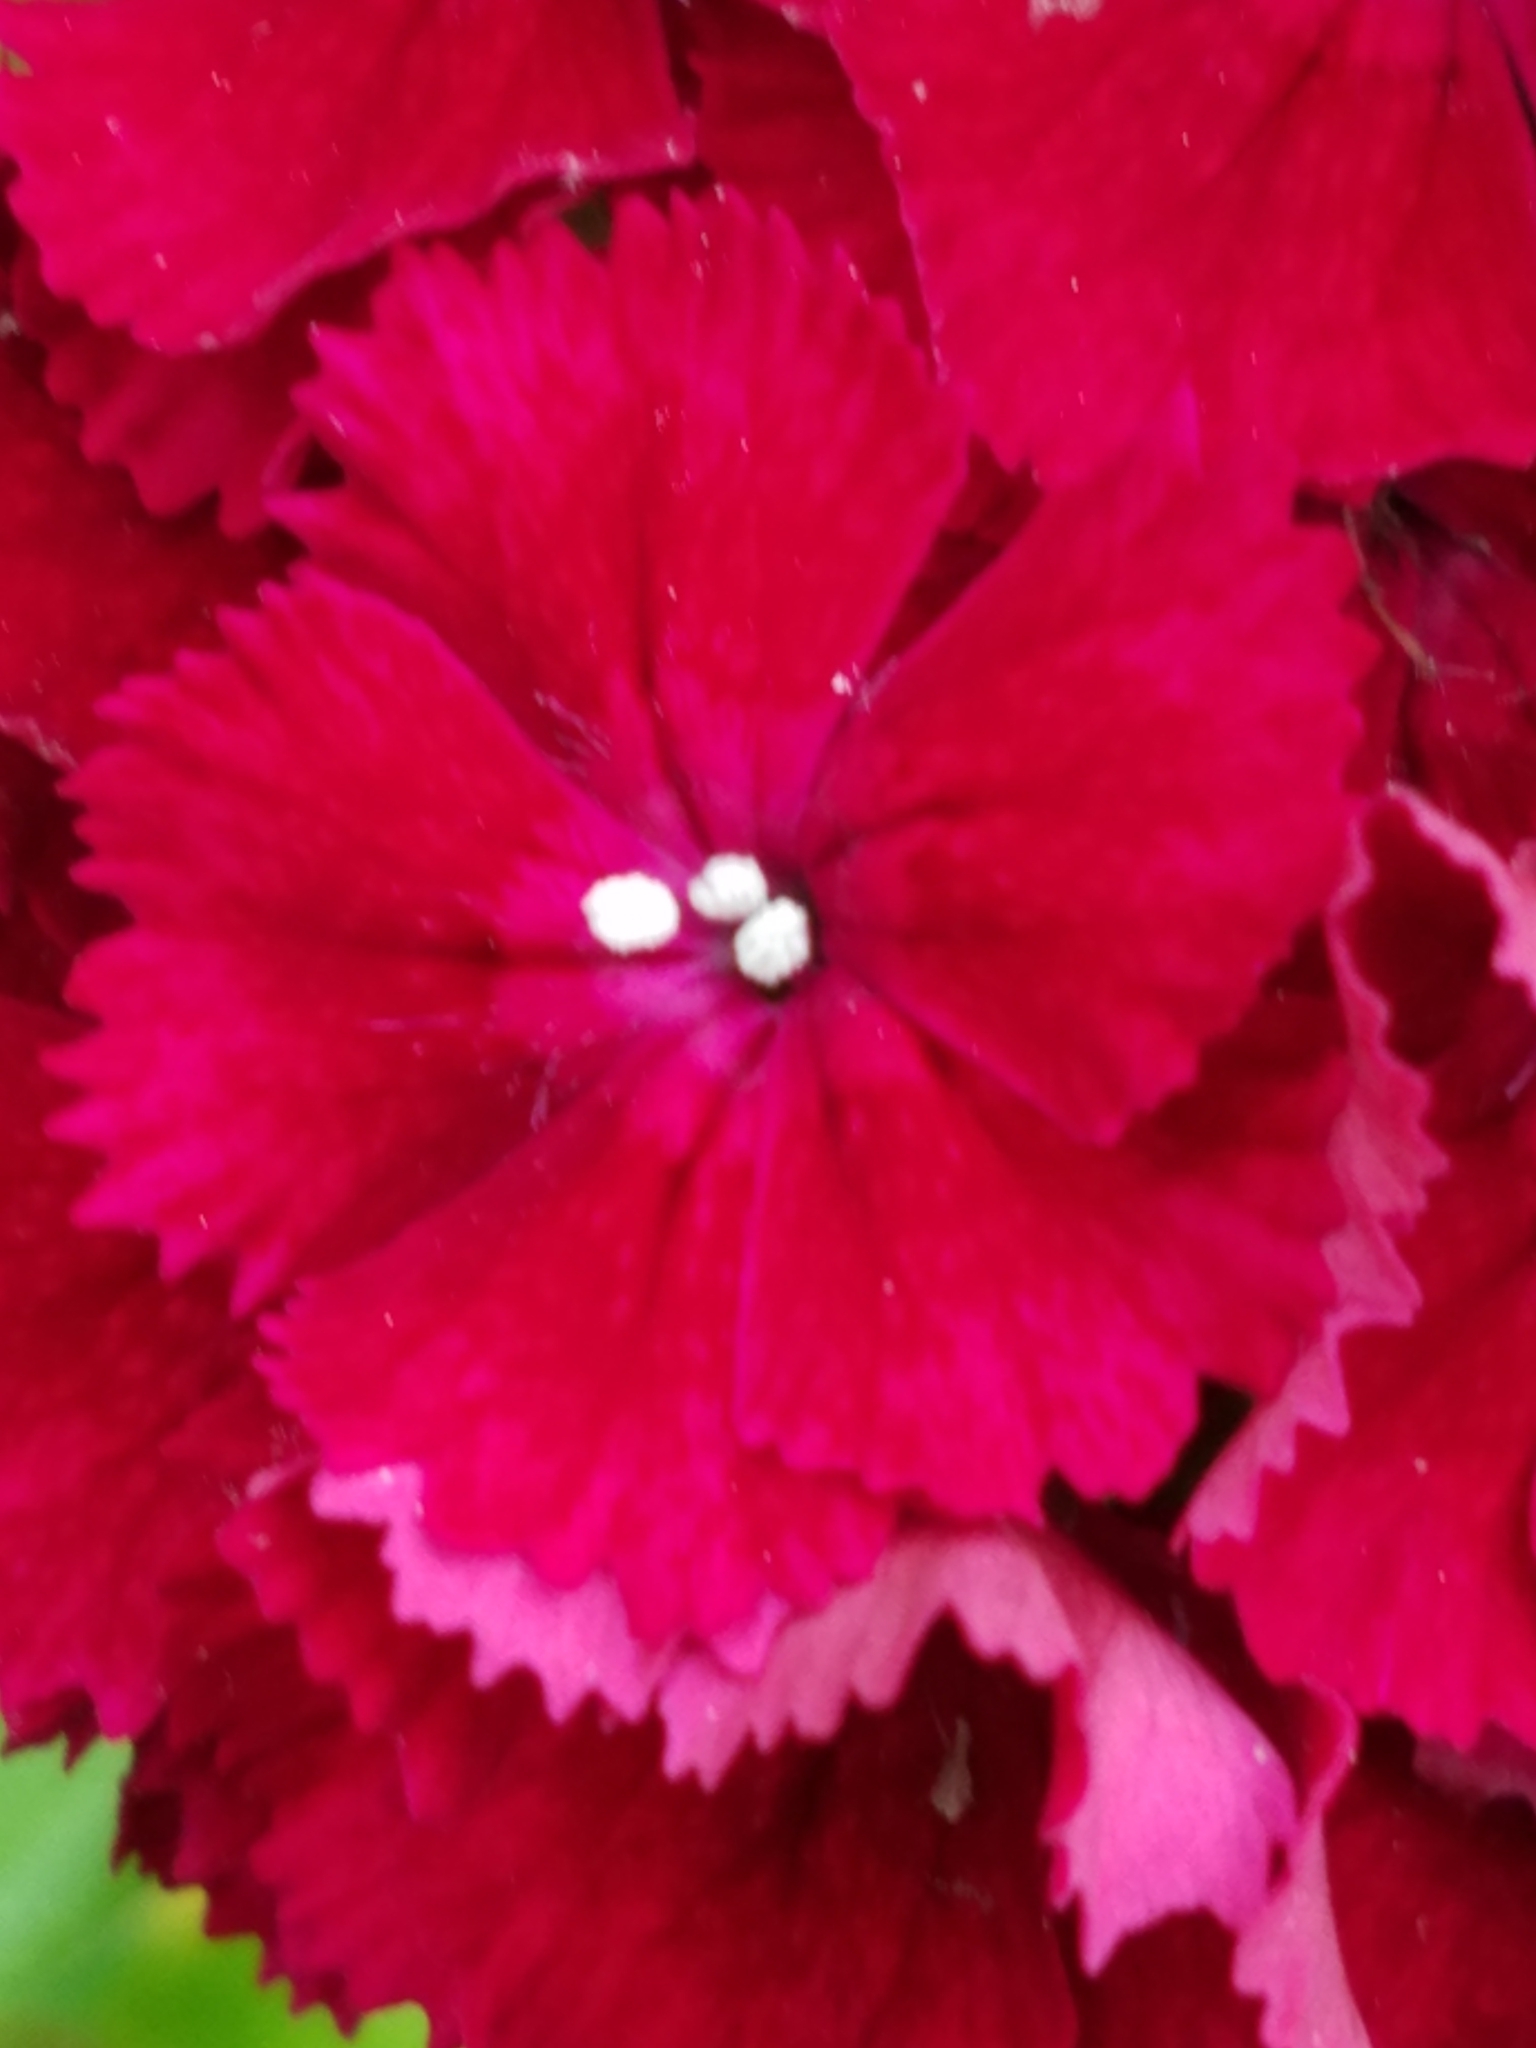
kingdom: Plantae
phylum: Tracheophyta
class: Magnoliopsida
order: Caryophyllales
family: Caryophyllaceae
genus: Dianthus
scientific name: Dianthus barbatus
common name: Sweet-william
